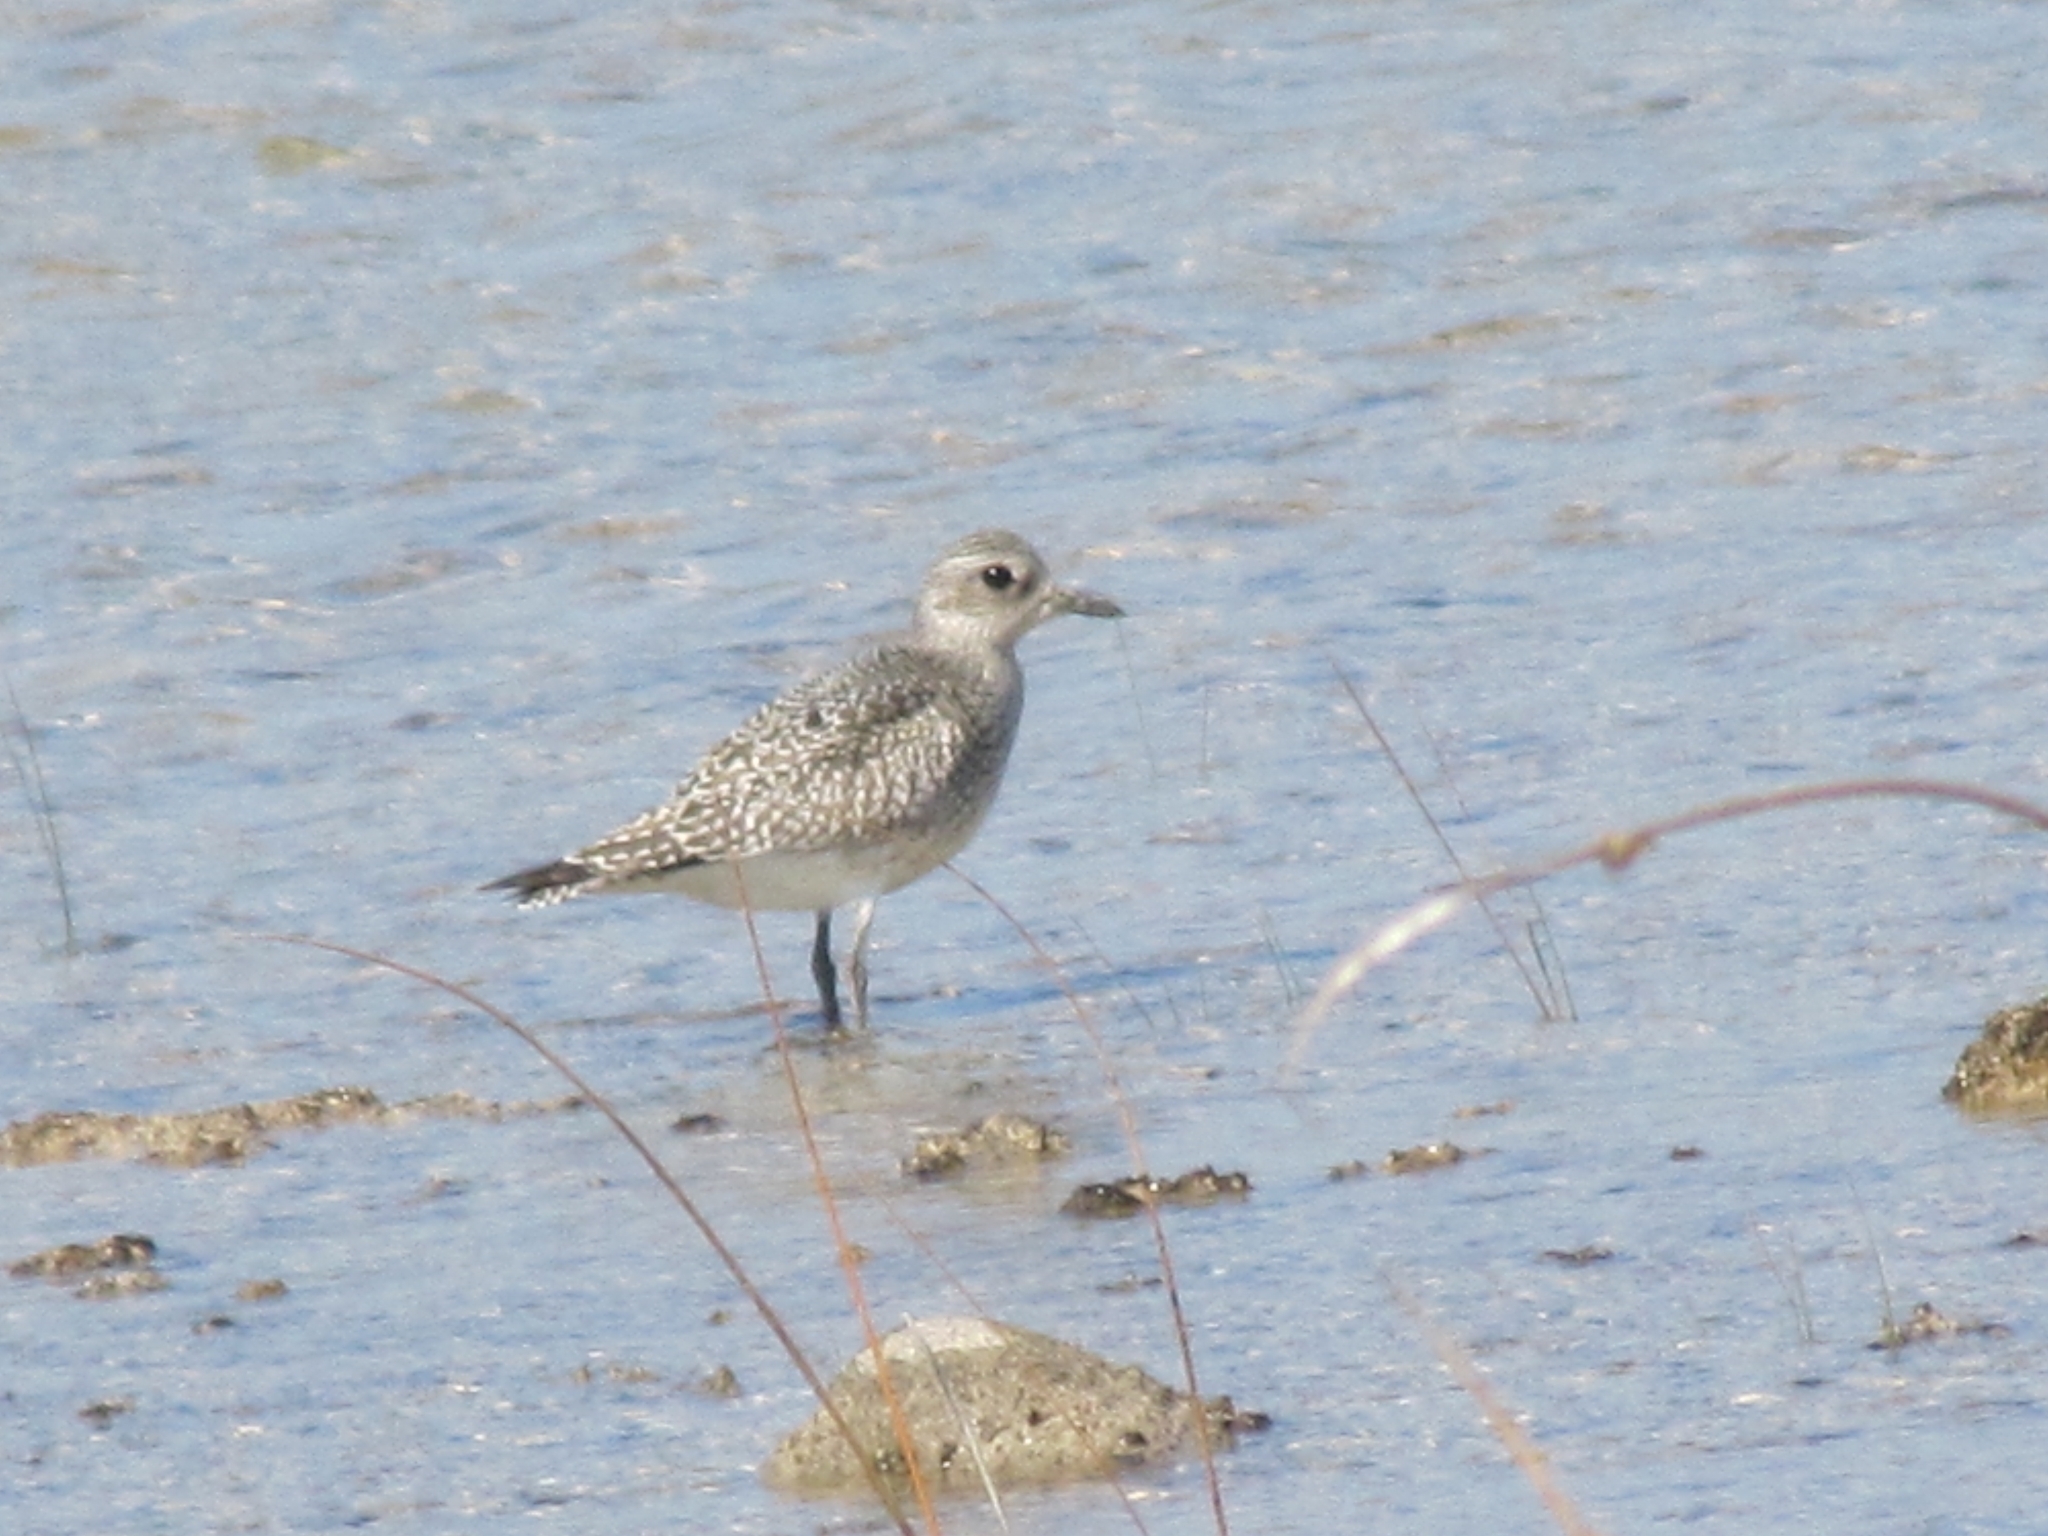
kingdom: Animalia
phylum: Chordata
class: Aves
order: Charadriiformes
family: Charadriidae
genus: Pluvialis
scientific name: Pluvialis squatarola
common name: Grey plover
